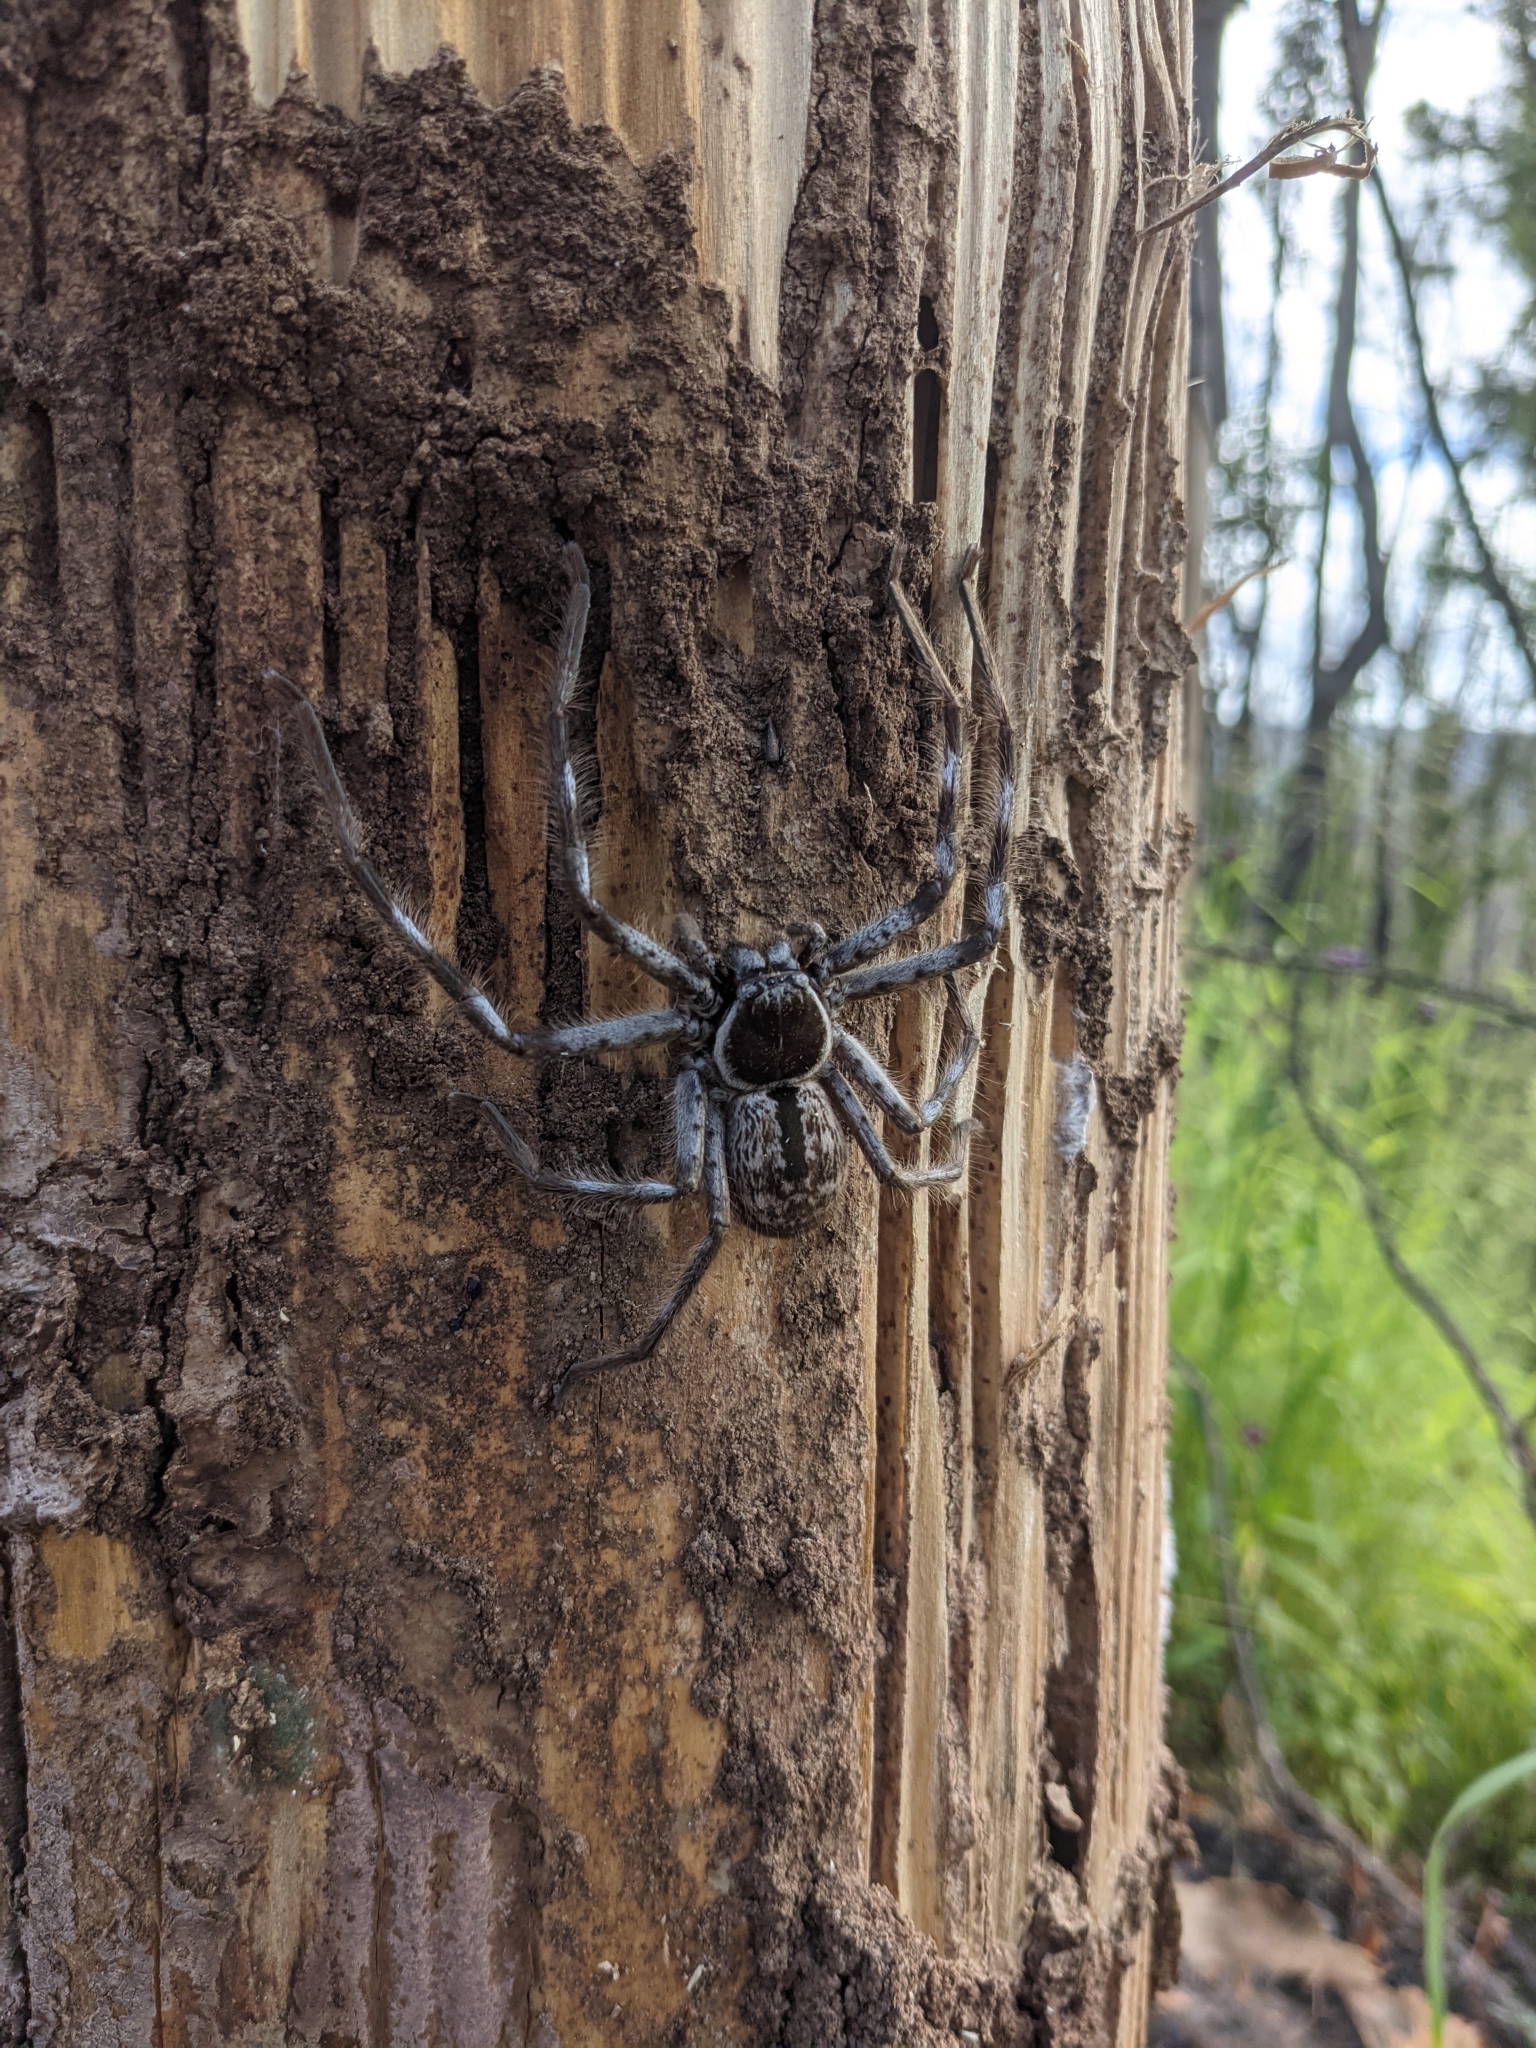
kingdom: Animalia
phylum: Arthropoda
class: Arachnida
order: Araneae
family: Sparassidae
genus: Holconia
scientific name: Holconia immanis
